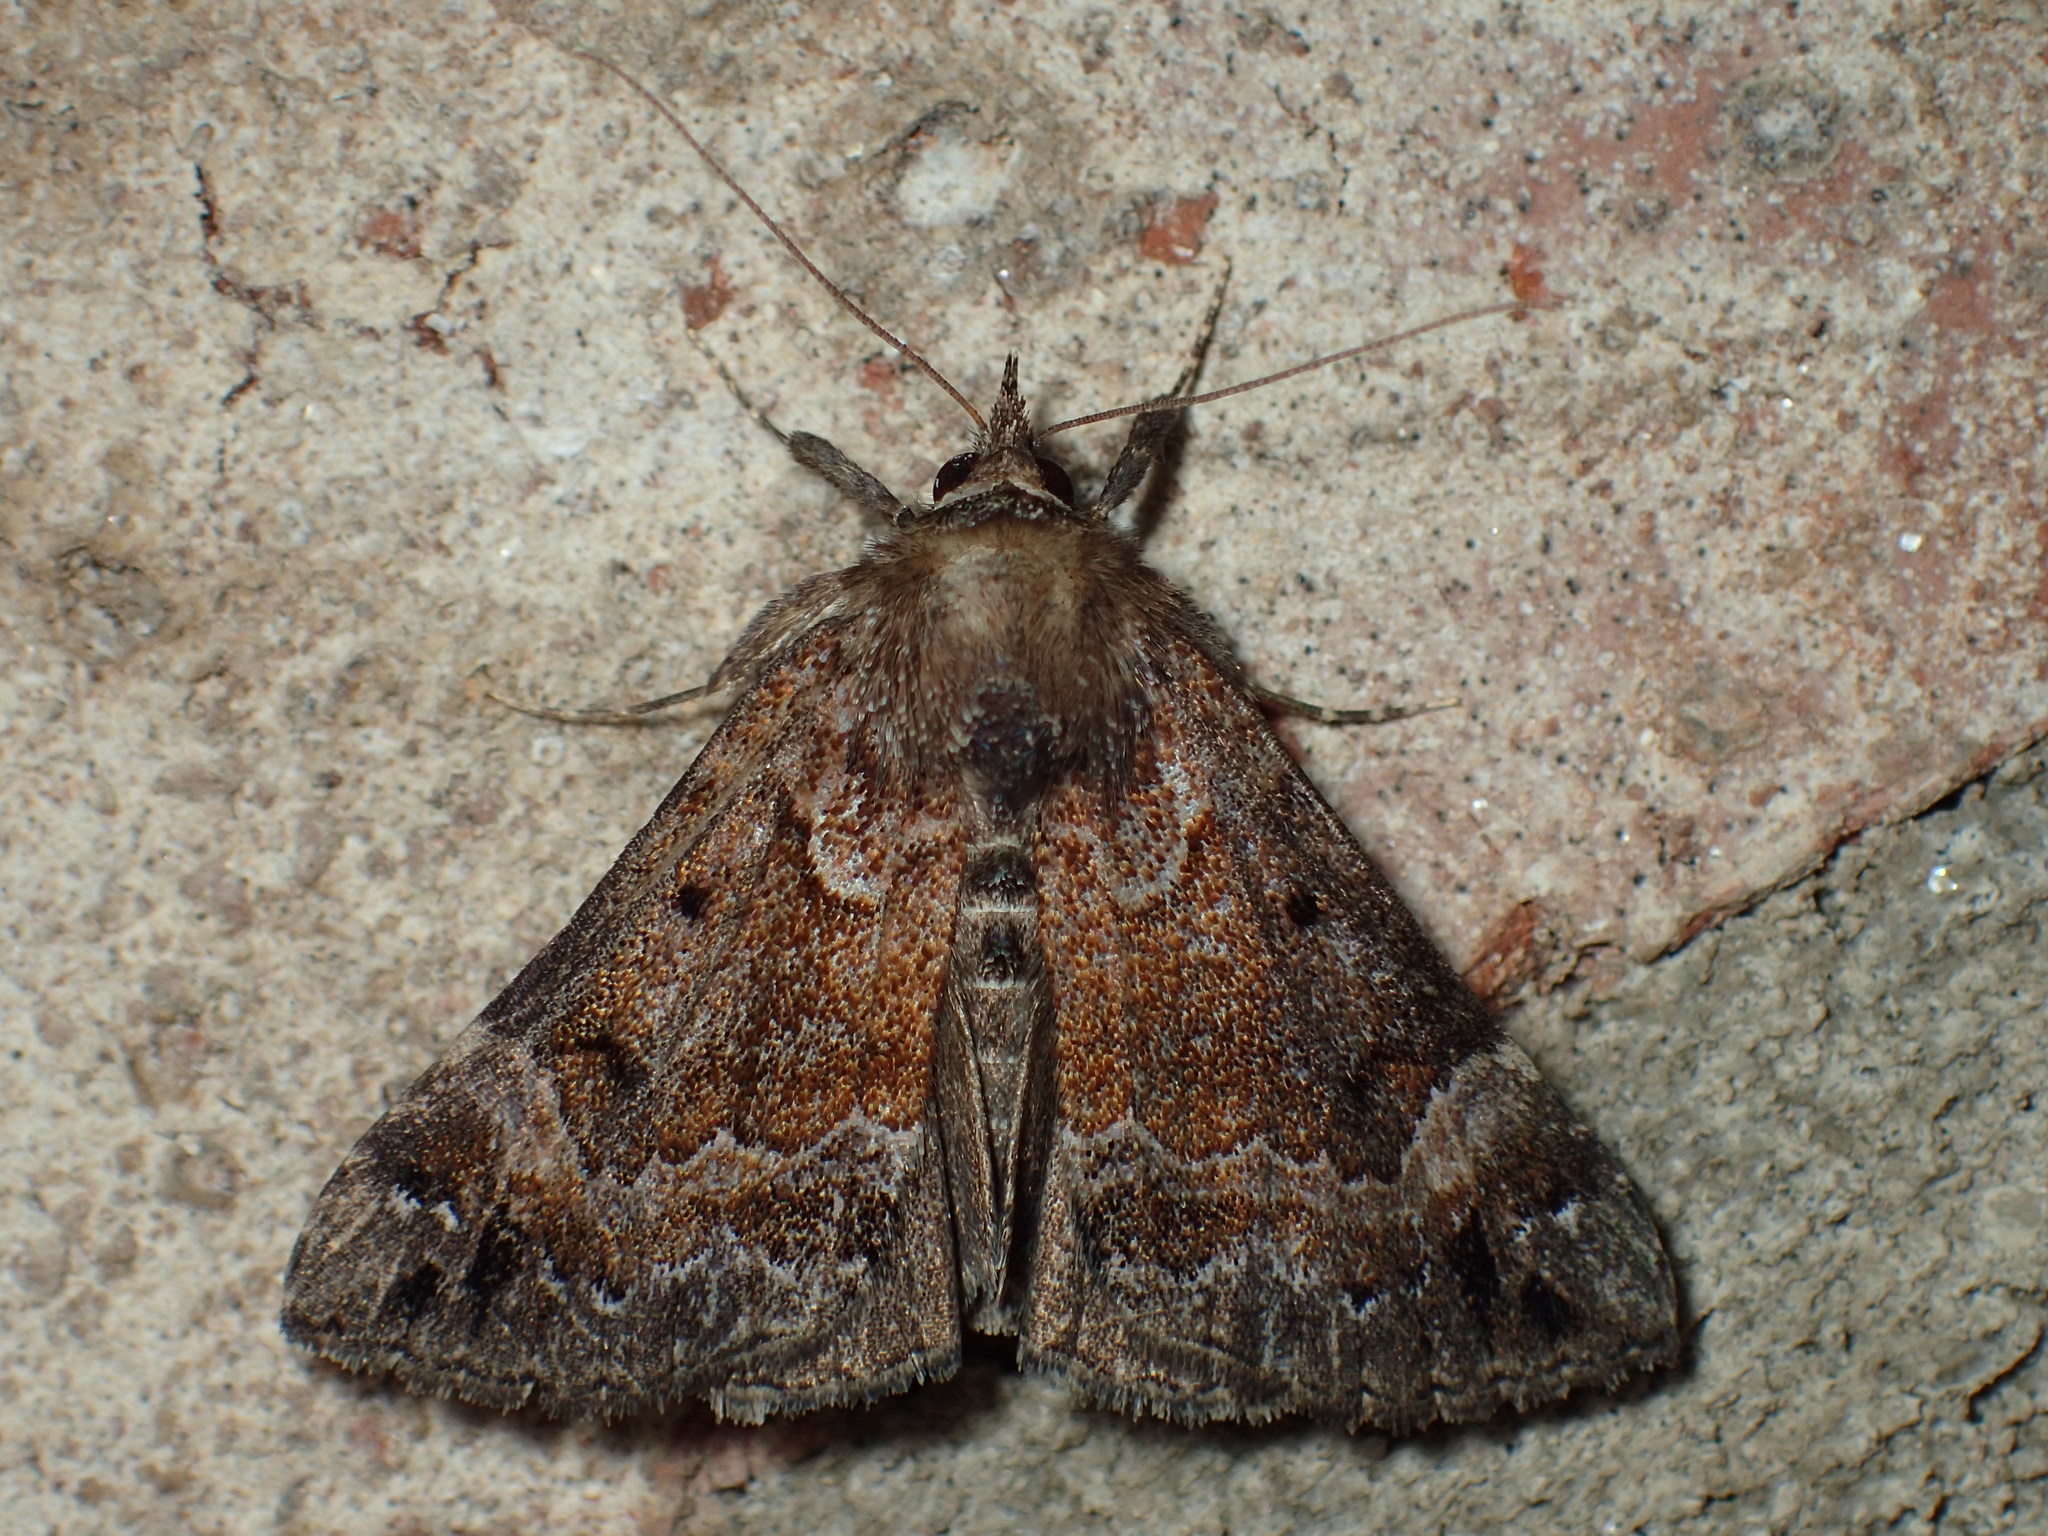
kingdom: Animalia
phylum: Arthropoda
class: Insecta
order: Lepidoptera
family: Erebidae
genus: Hypena
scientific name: Hypena palparia
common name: Mottled bomolocha moth
